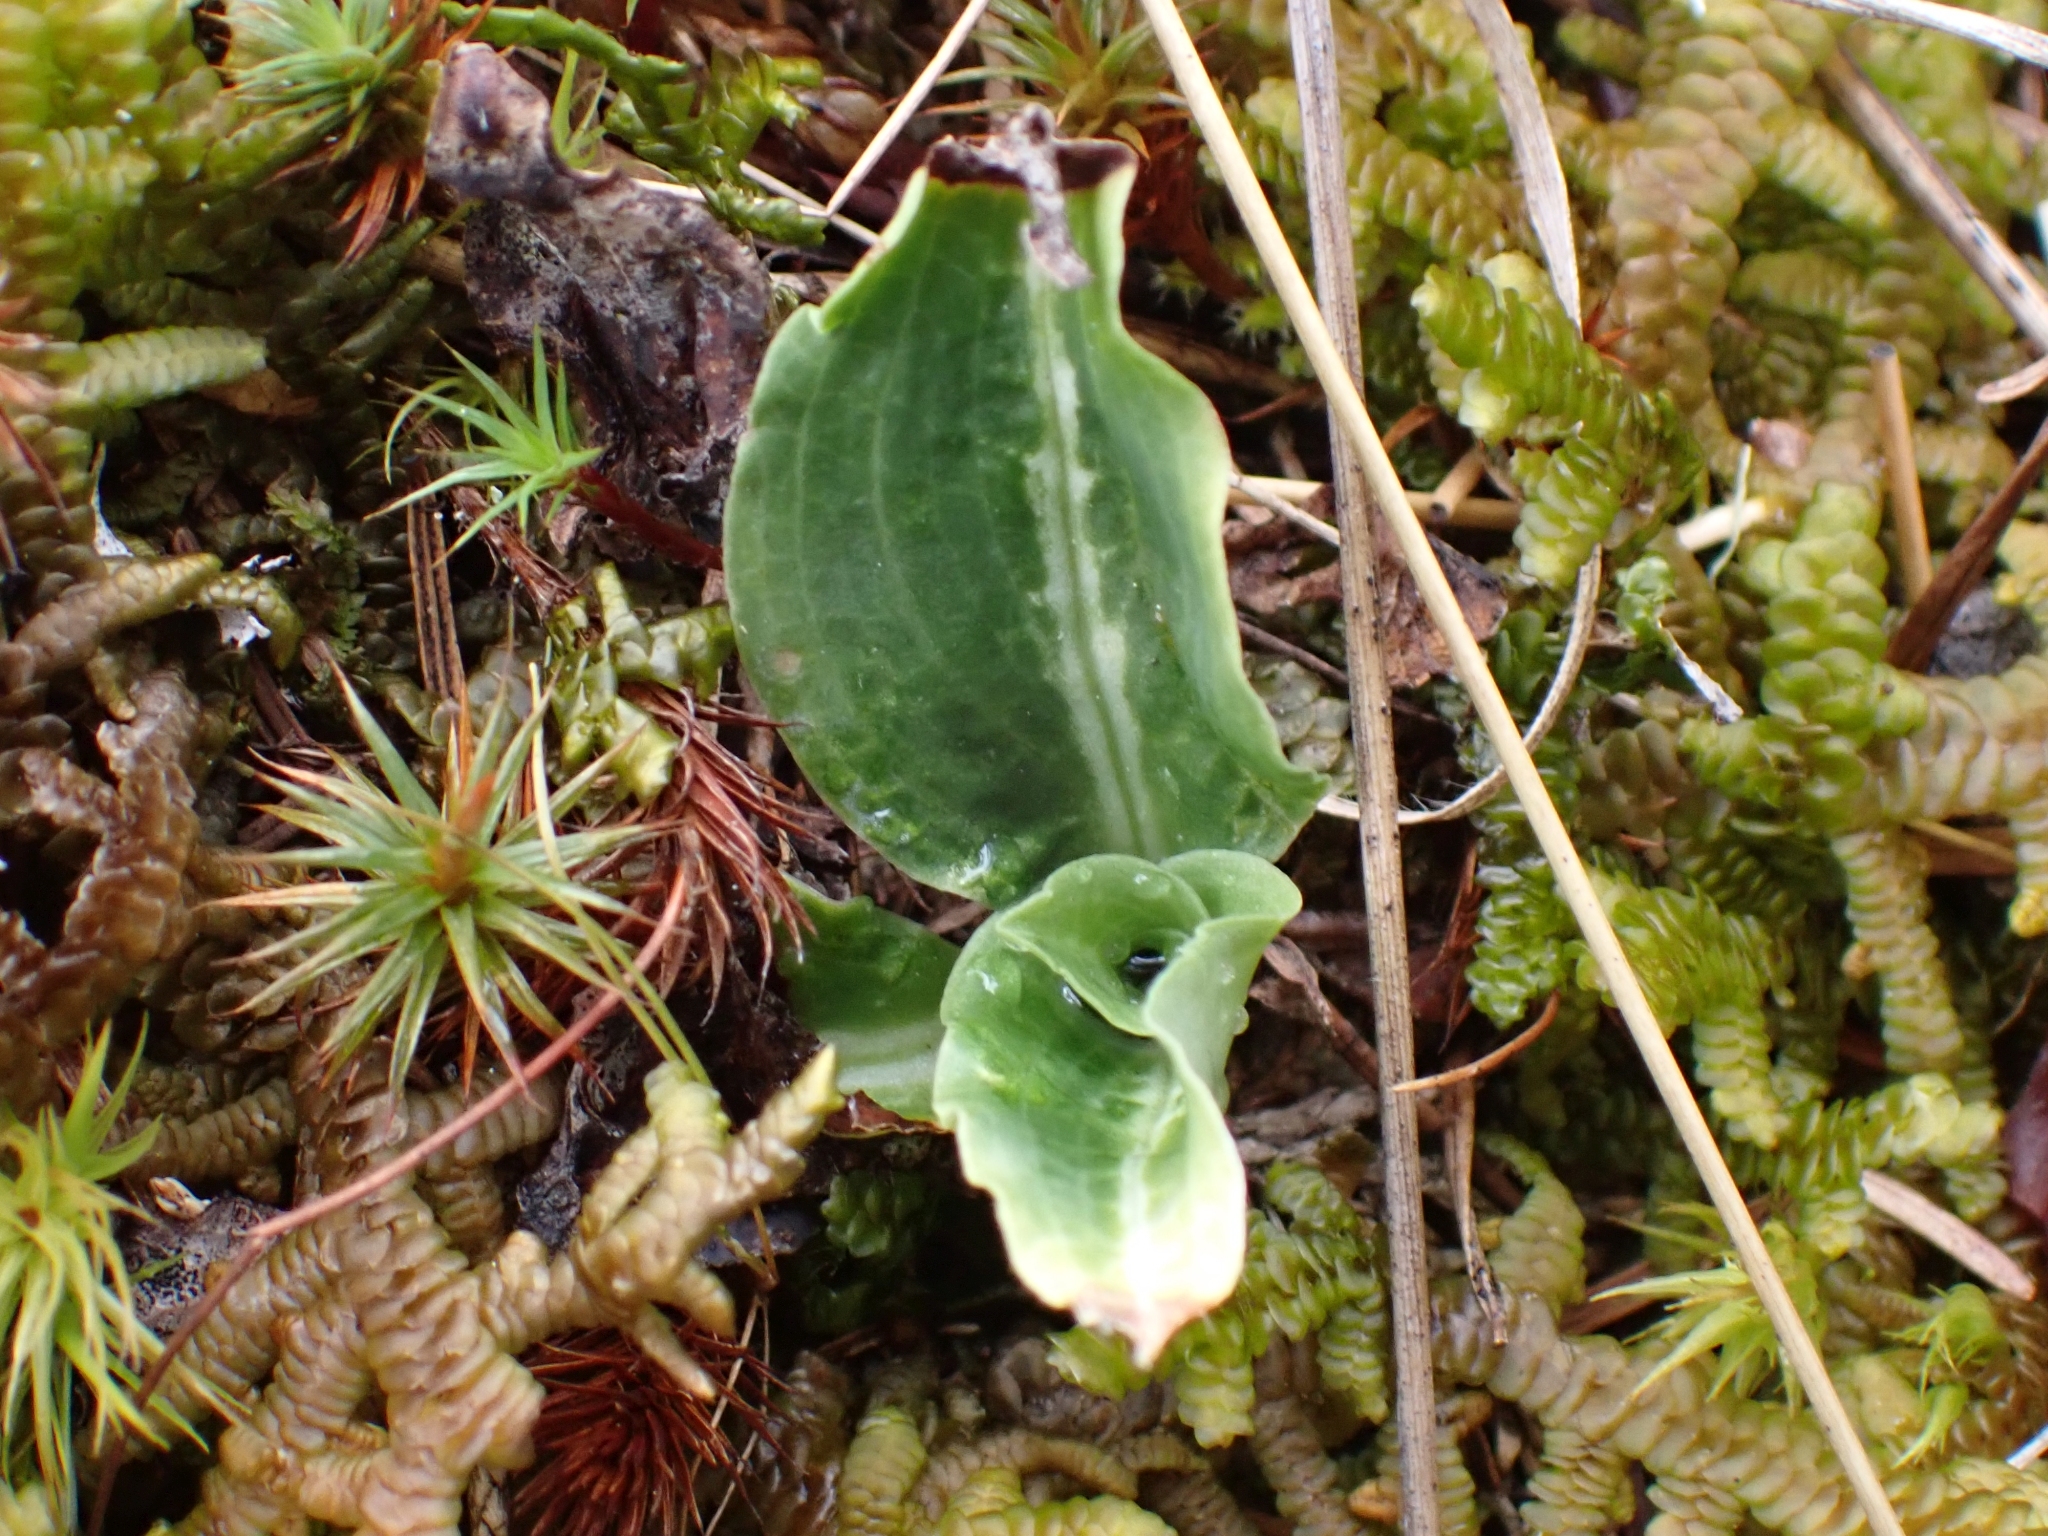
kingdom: Plantae
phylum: Tracheophyta
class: Liliopsida
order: Asparagales
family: Orchidaceae
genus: Goodyera
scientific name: Goodyera oblongifolia
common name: Giant rattlesnake-plantain
